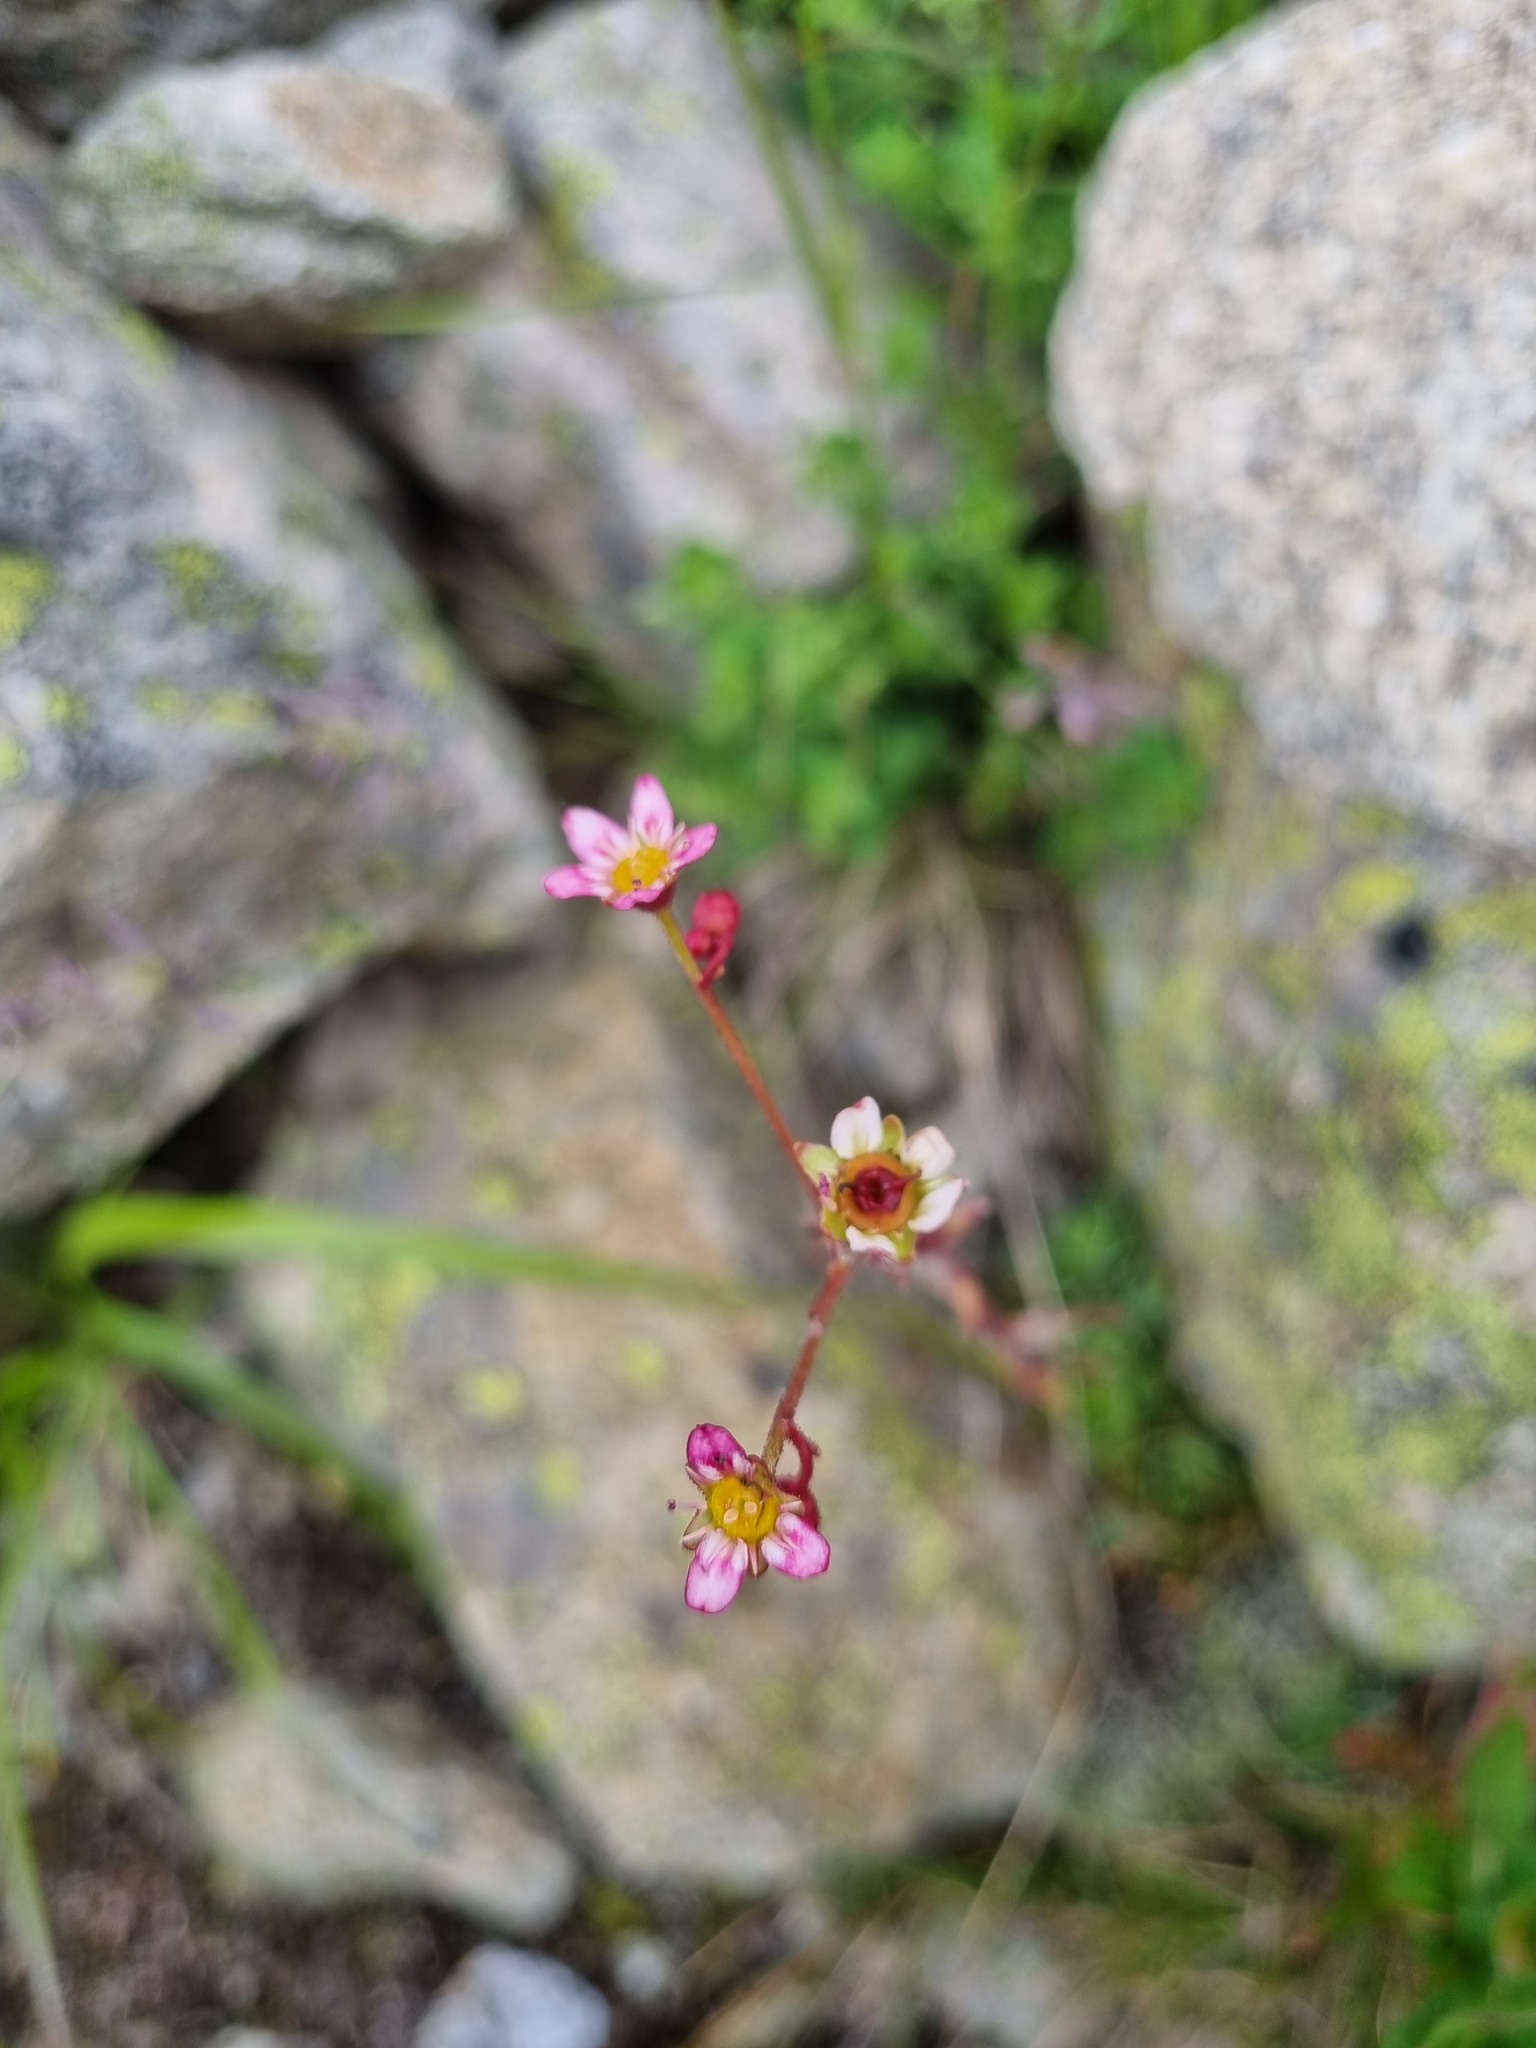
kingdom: Plantae
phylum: Tracheophyta
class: Magnoliopsida
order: Saxifragales
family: Saxifragaceae
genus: Saxifraga
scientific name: Saxifraga kolenatiana
